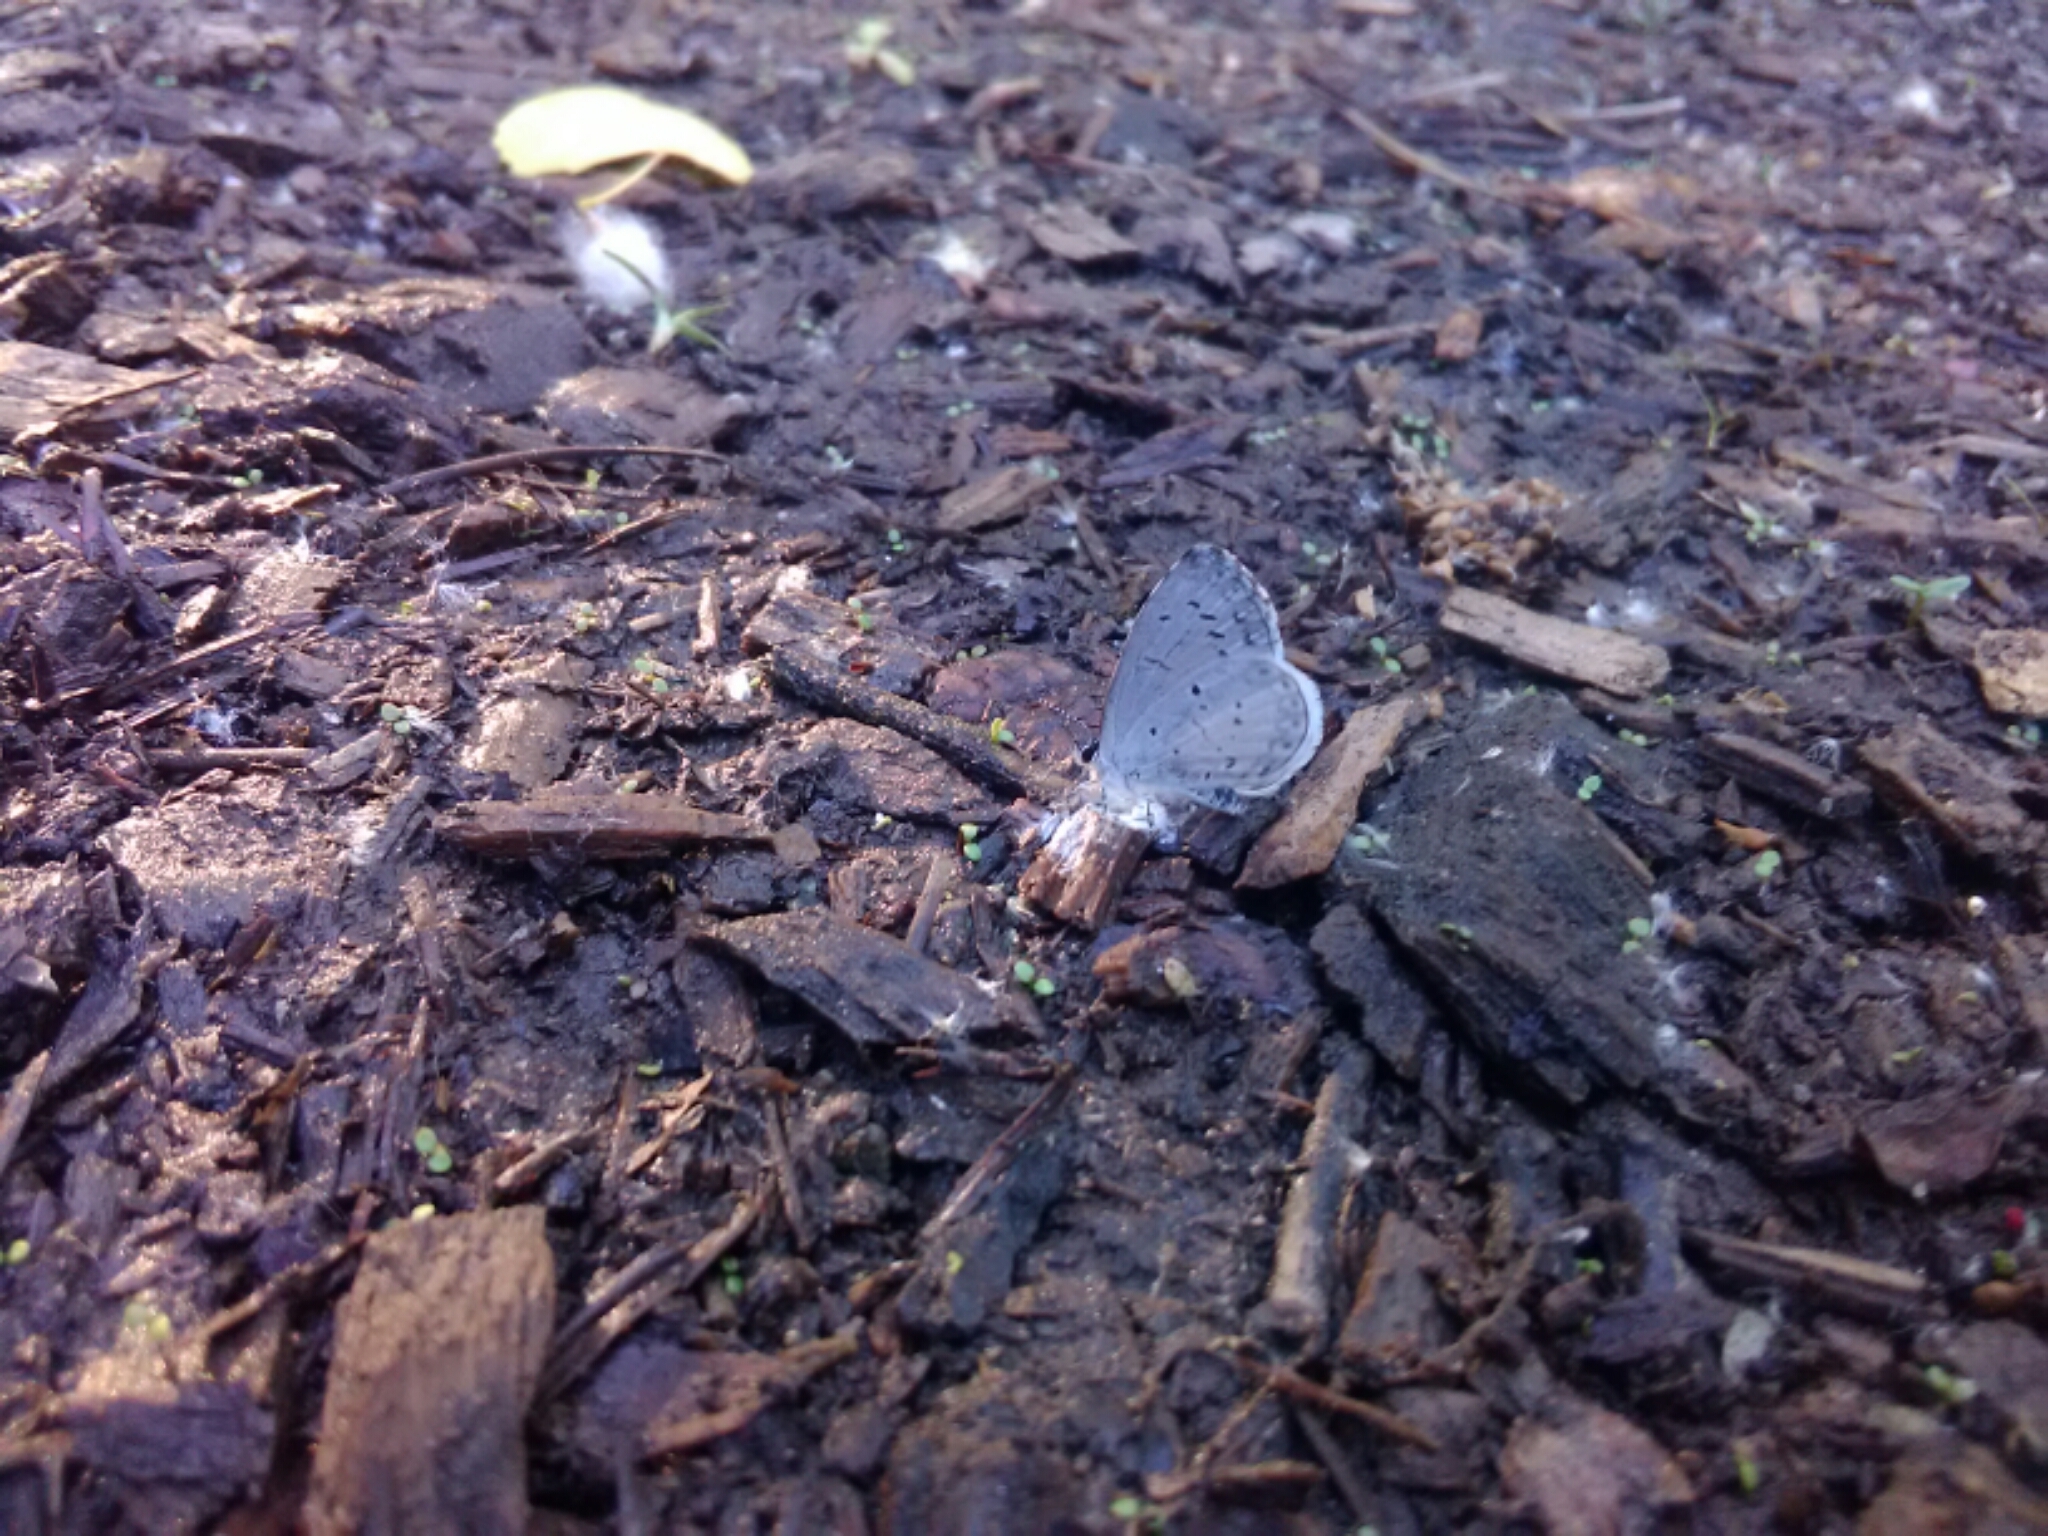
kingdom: Animalia
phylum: Arthropoda
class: Insecta
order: Lepidoptera
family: Lycaenidae
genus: Cyaniris
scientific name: Cyaniris neglecta
